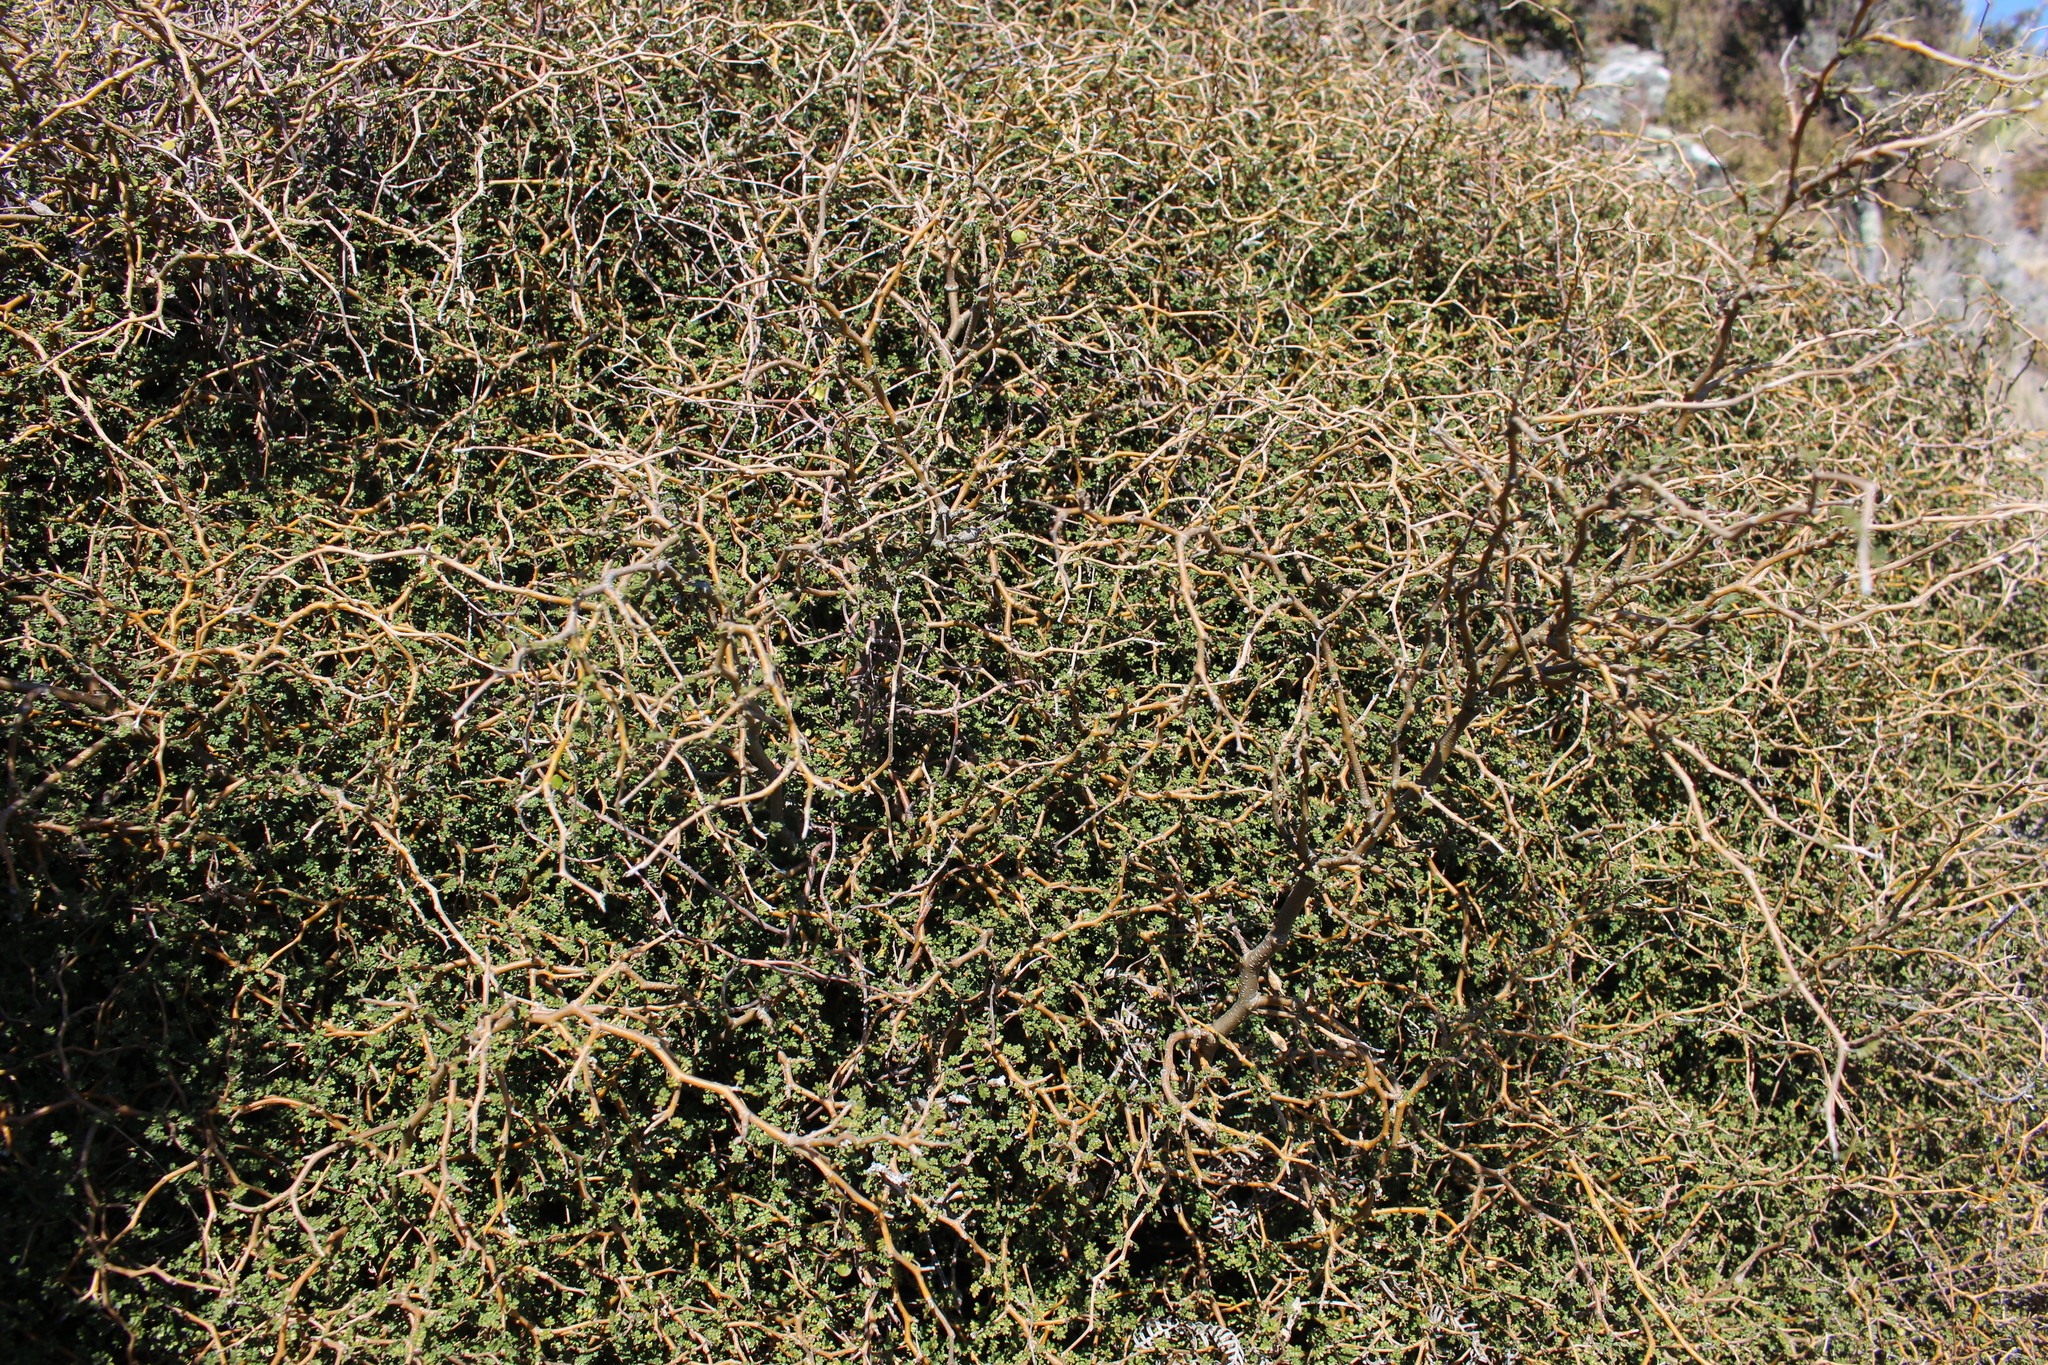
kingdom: Plantae
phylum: Tracheophyta
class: Magnoliopsida
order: Fabales
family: Fabaceae
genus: Sophora
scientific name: Sophora prostrata
